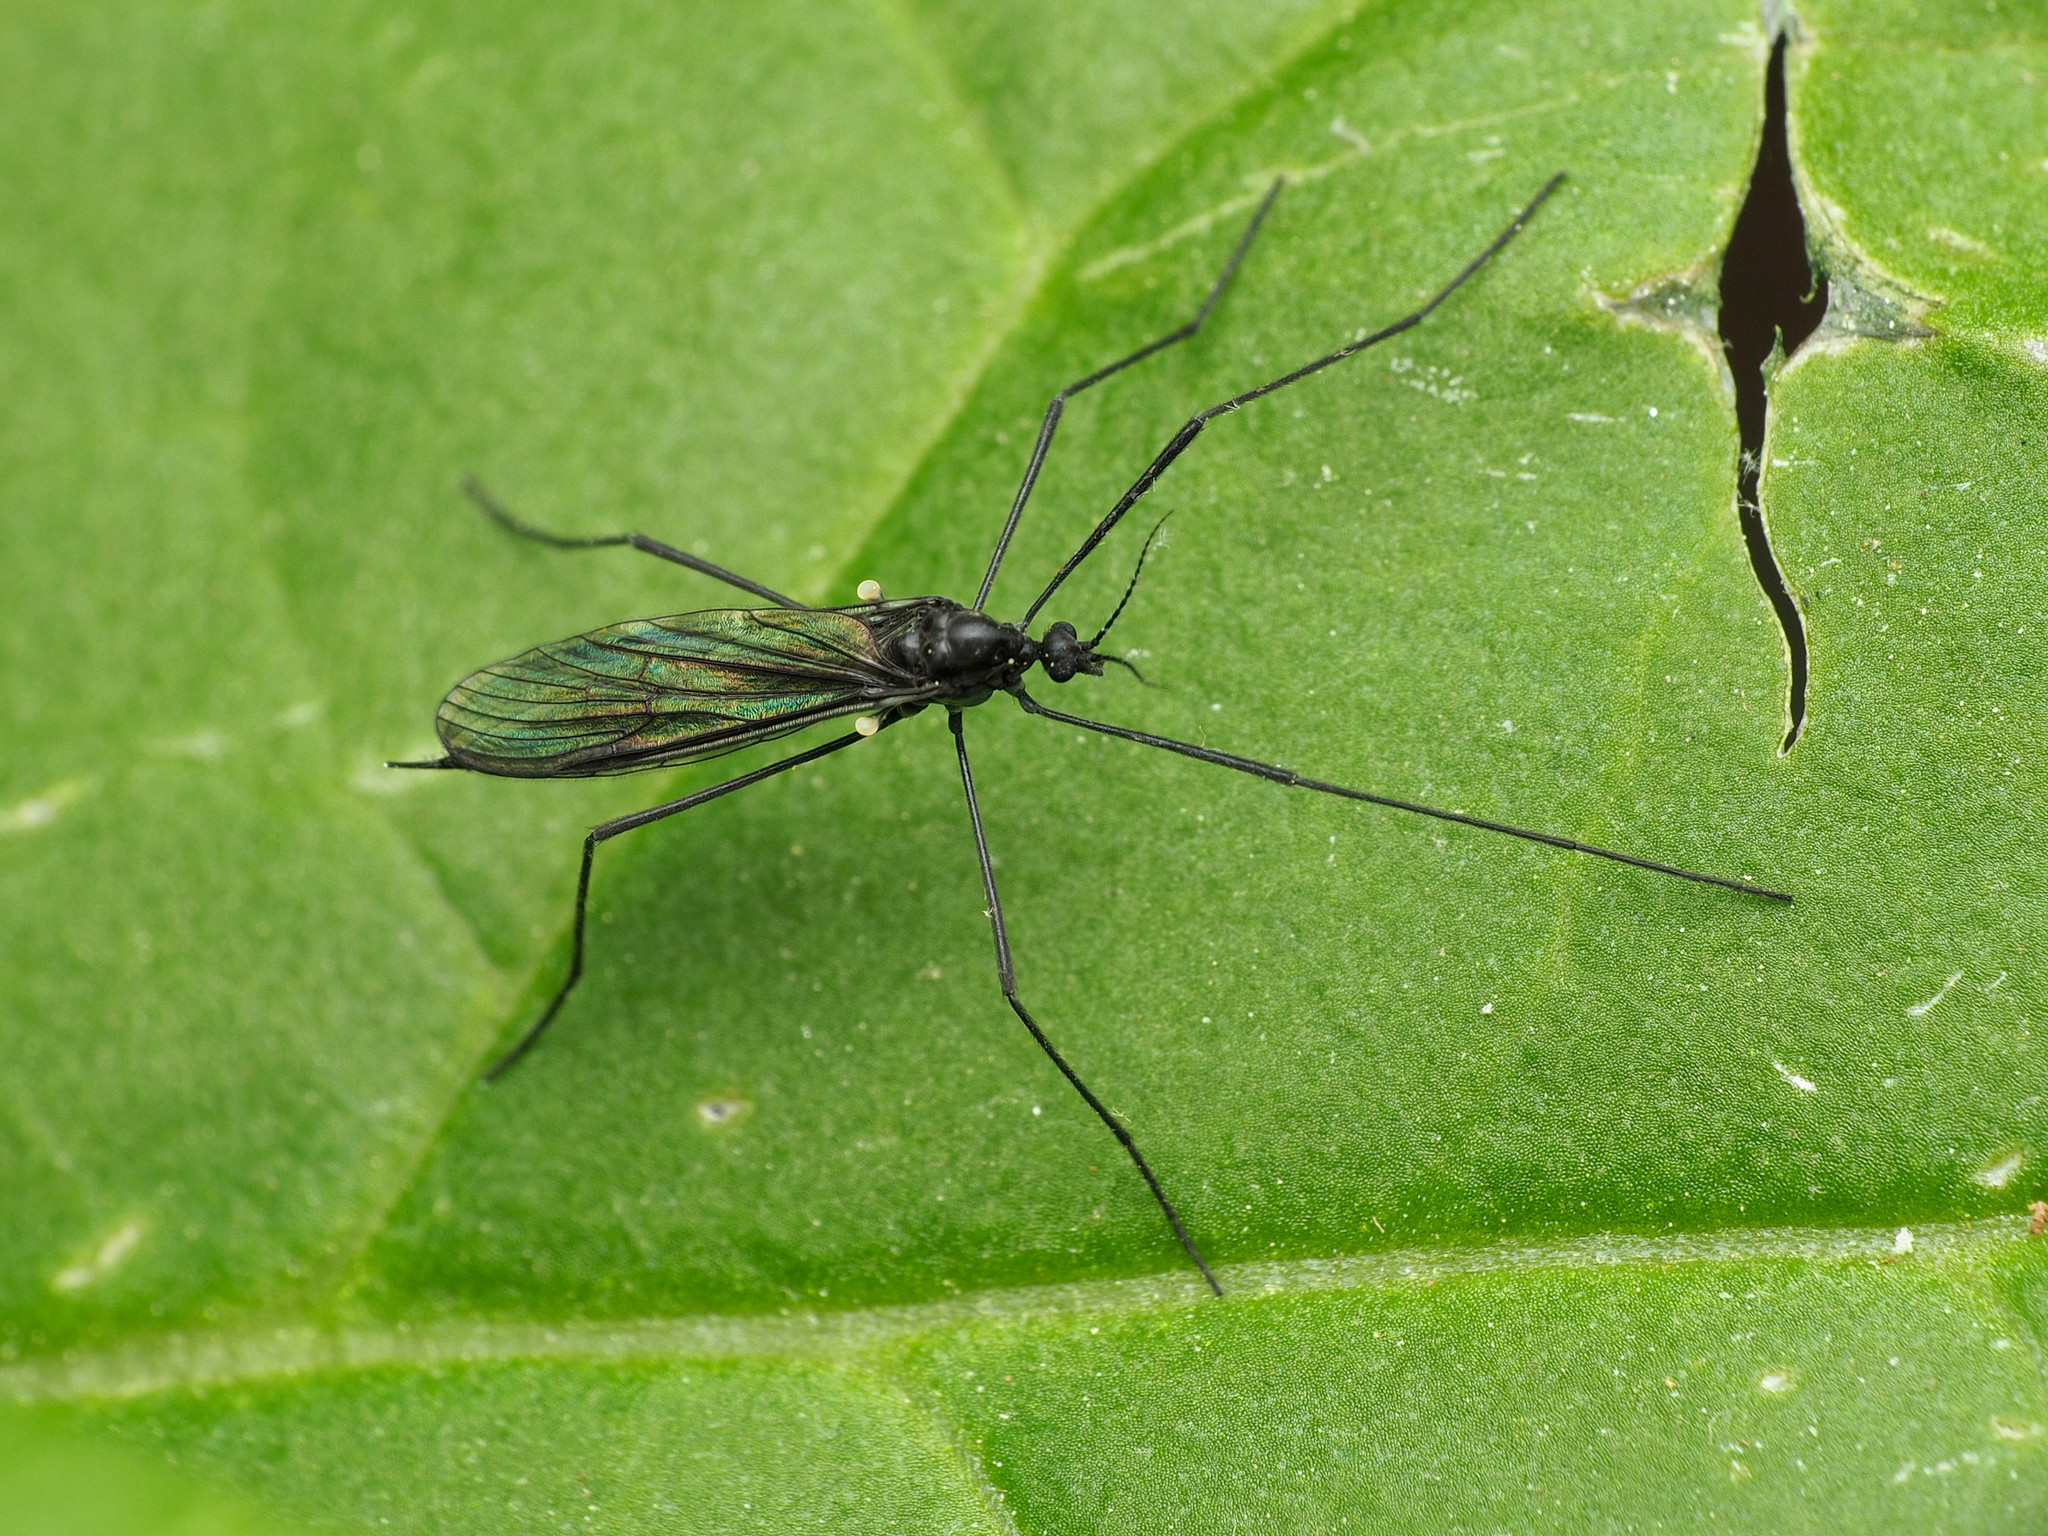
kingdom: Animalia
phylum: Arthropoda
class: Insecta
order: Diptera
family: Limoniidae
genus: Gnophomyia
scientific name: Gnophomyia tristissima
